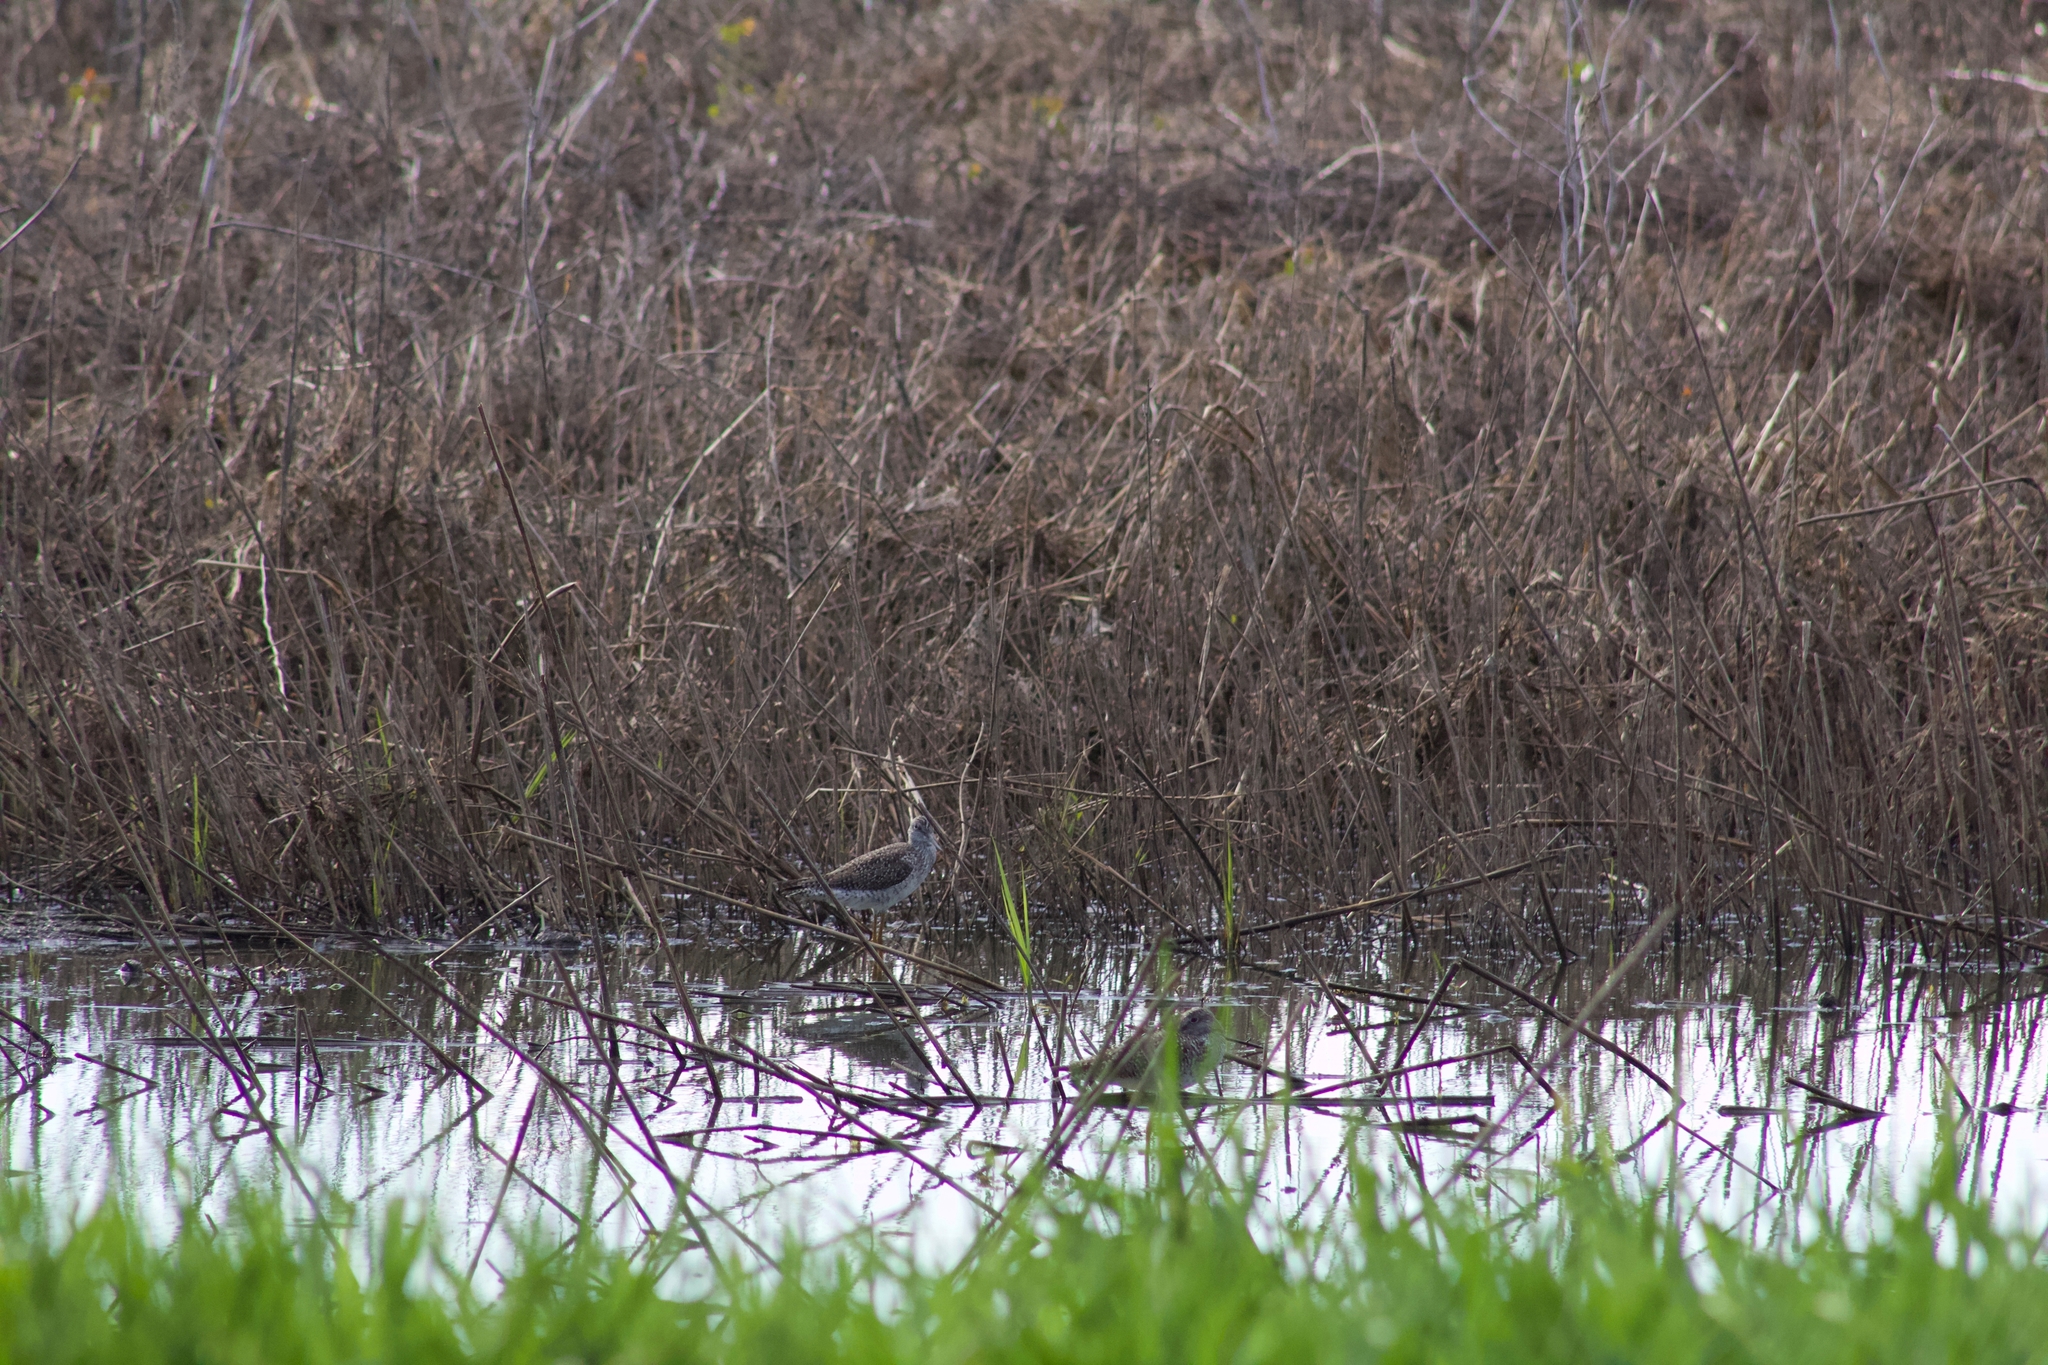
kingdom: Animalia
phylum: Chordata
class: Aves
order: Charadriiformes
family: Scolopacidae
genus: Tringa
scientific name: Tringa
